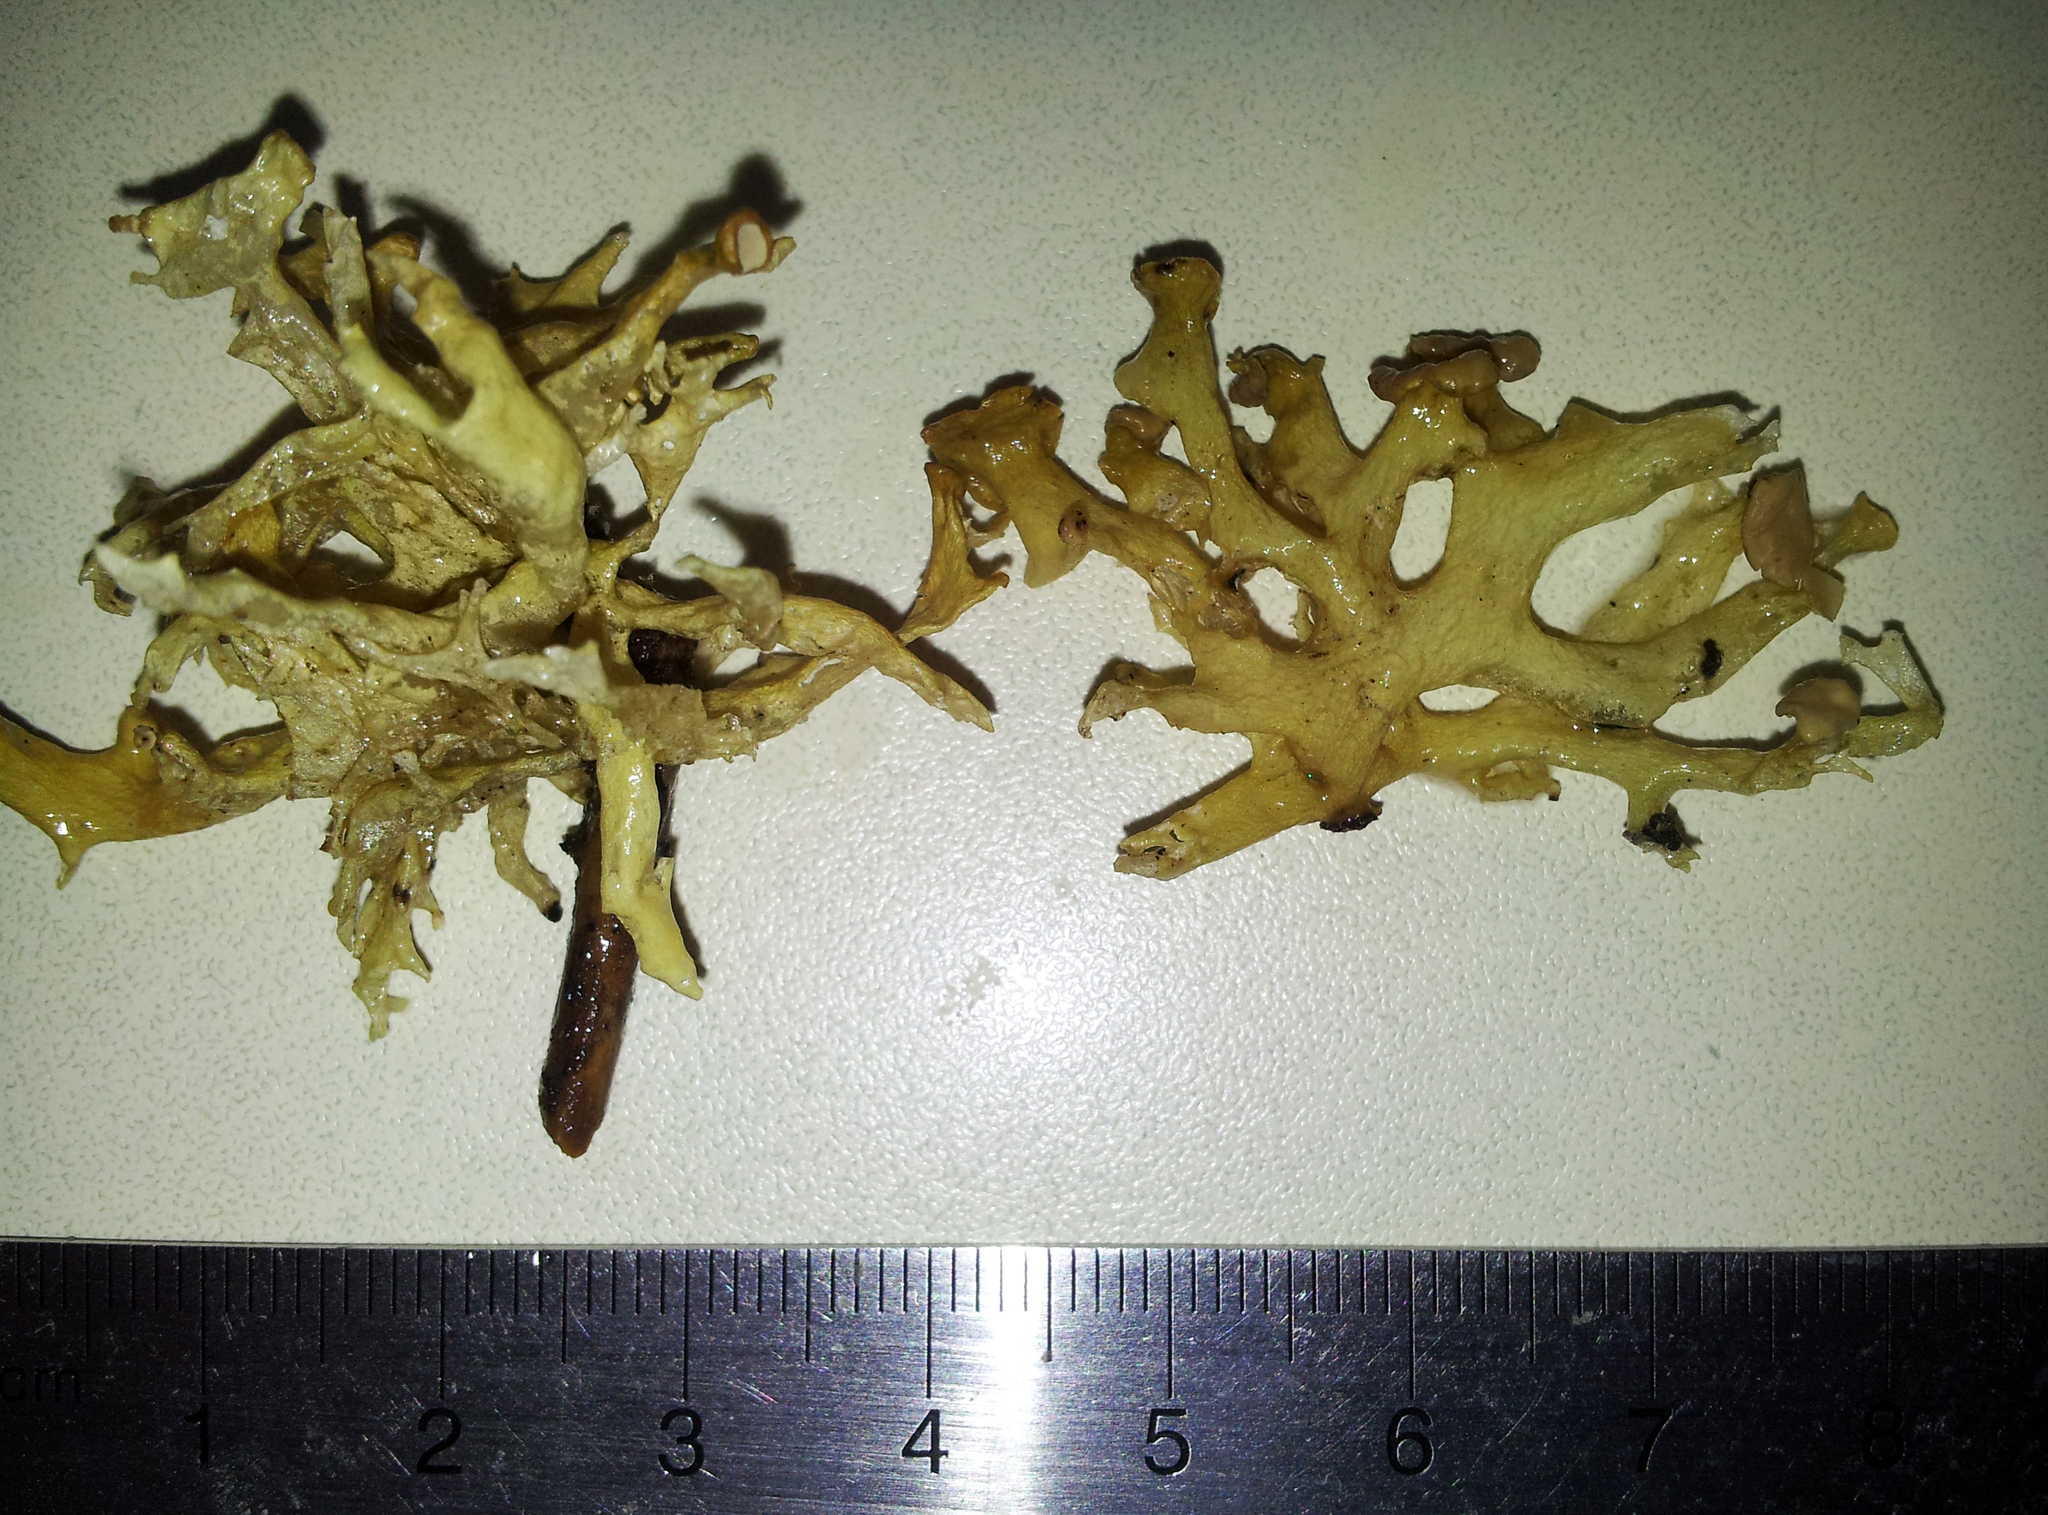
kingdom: Fungi
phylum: Ascomycota
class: Lecanoromycetes
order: Lecanorales
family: Ramalinaceae
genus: Ramalina
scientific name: Ramalina inflata
